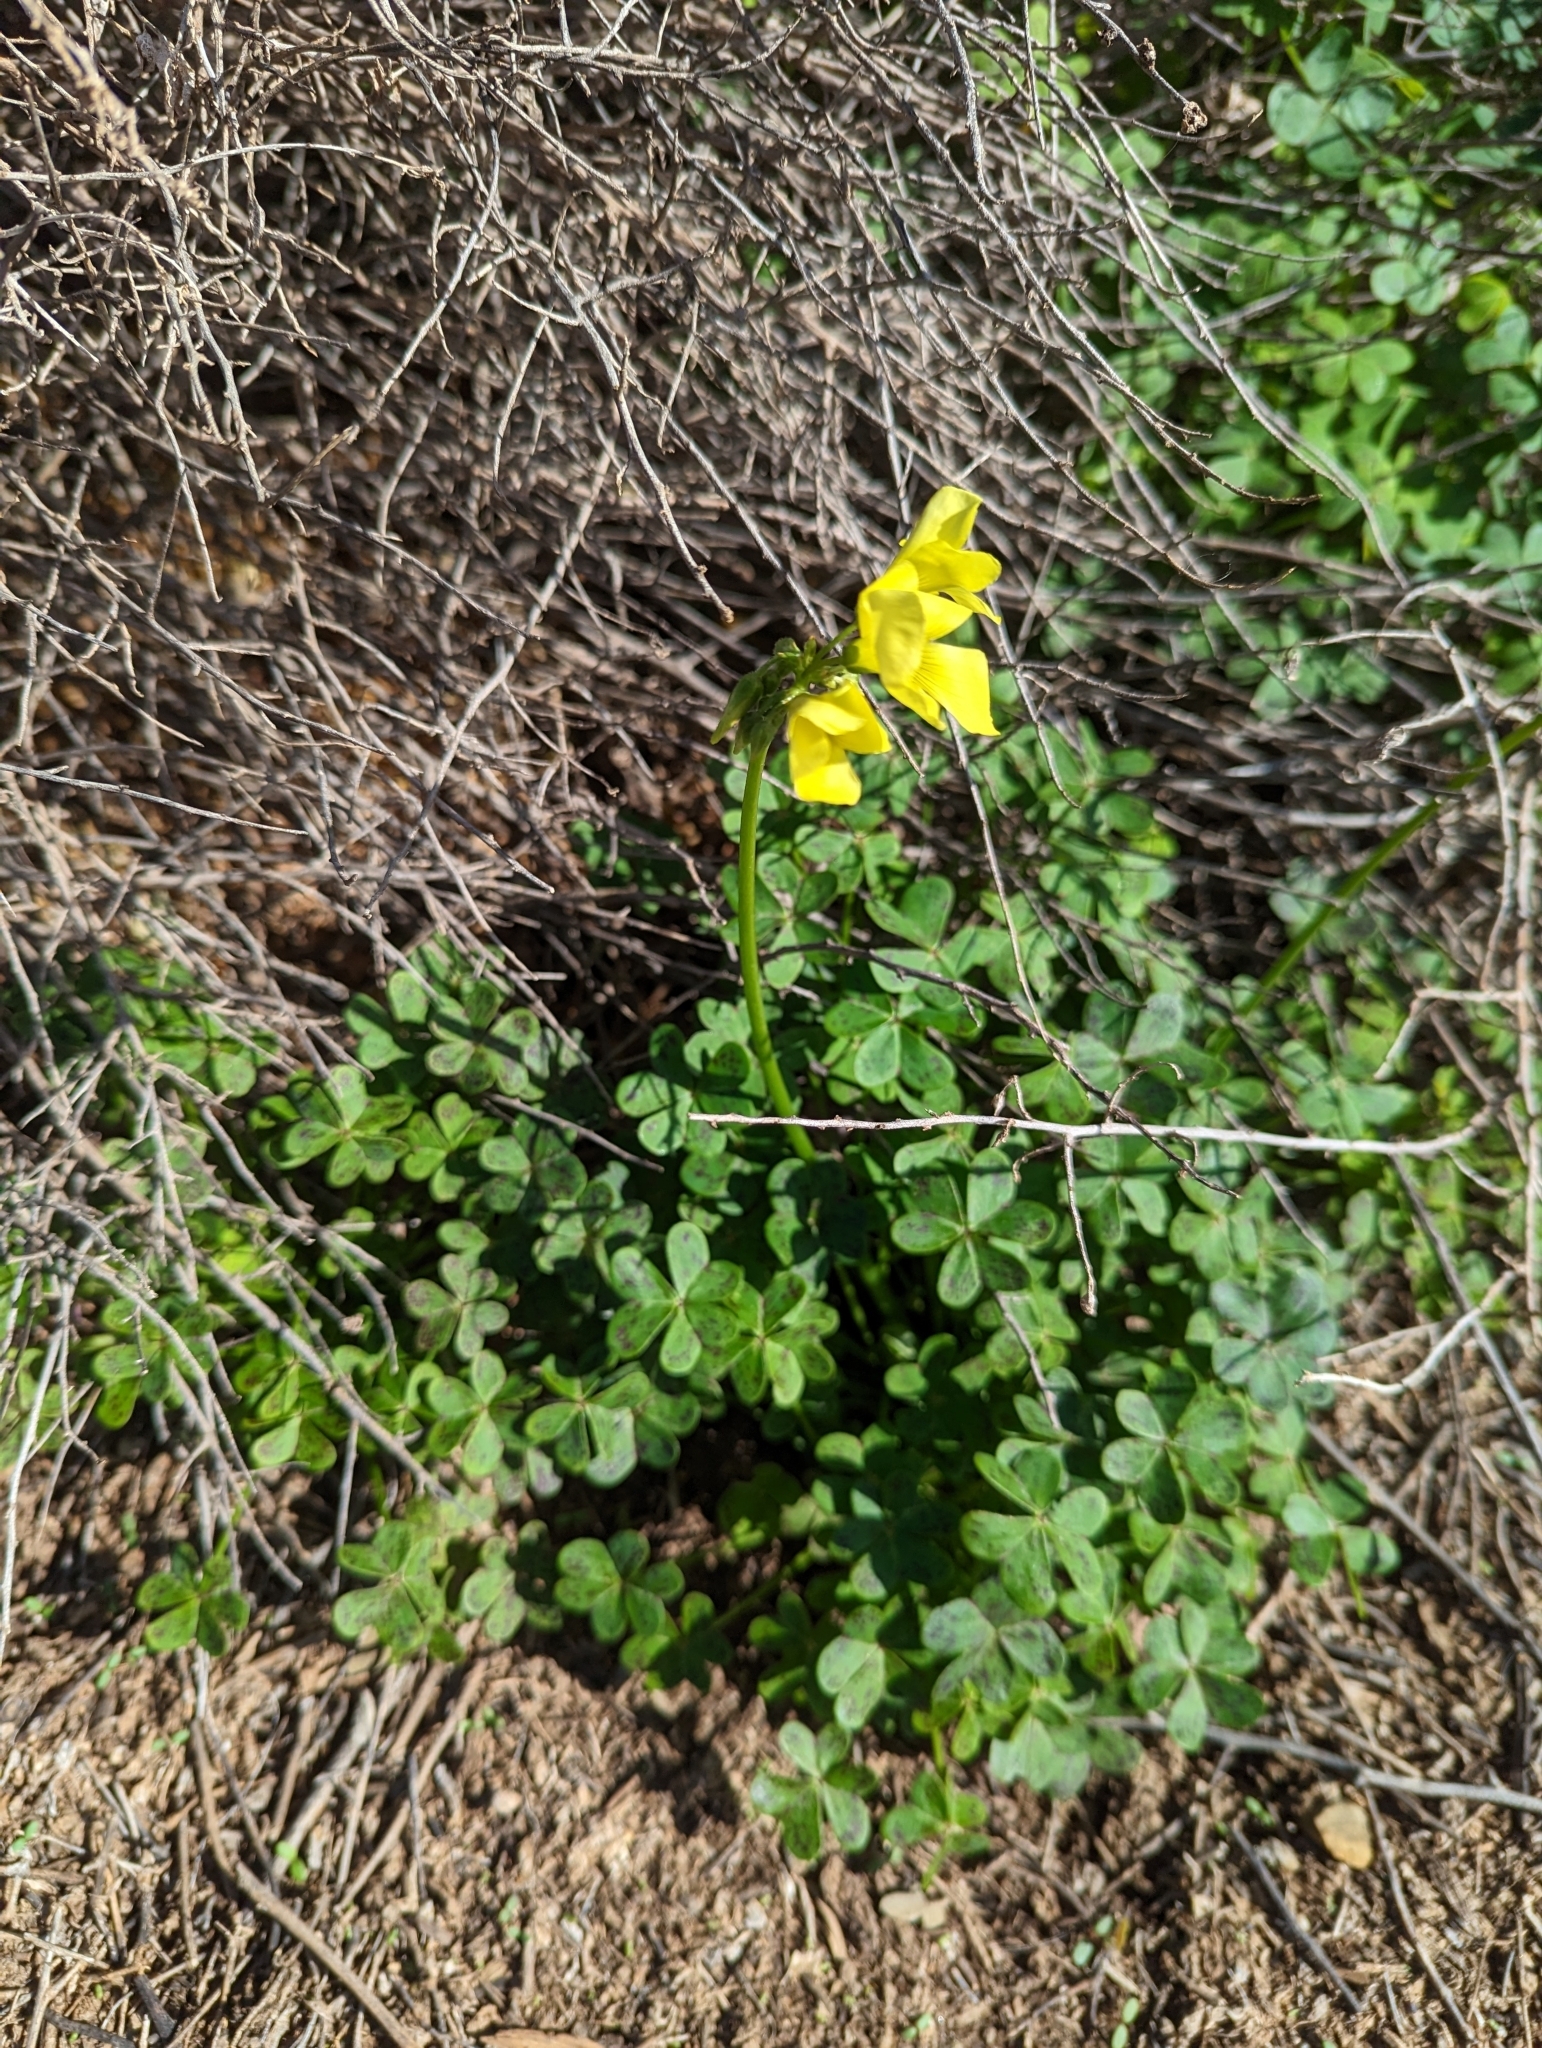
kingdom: Plantae
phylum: Tracheophyta
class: Magnoliopsida
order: Oxalidales
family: Oxalidaceae
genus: Oxalis
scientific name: Oxalis pes-caprae
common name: Bermuda-buttercup
